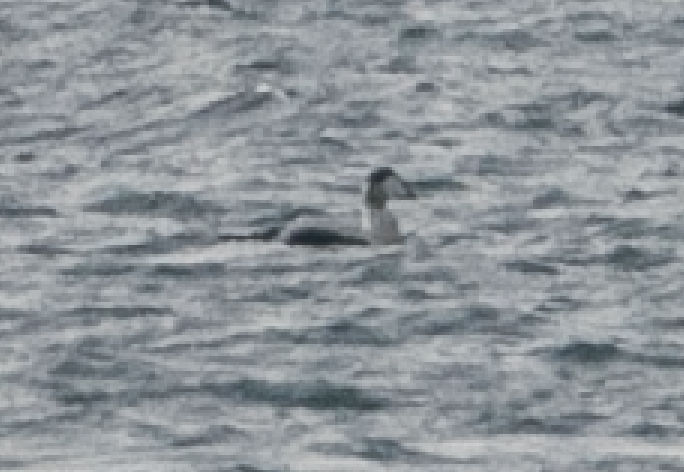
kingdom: Animalia
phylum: Chordata
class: Aves
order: Anseriformes
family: Anatidae
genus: Somateria
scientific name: Somateria mollissima
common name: Common eider
